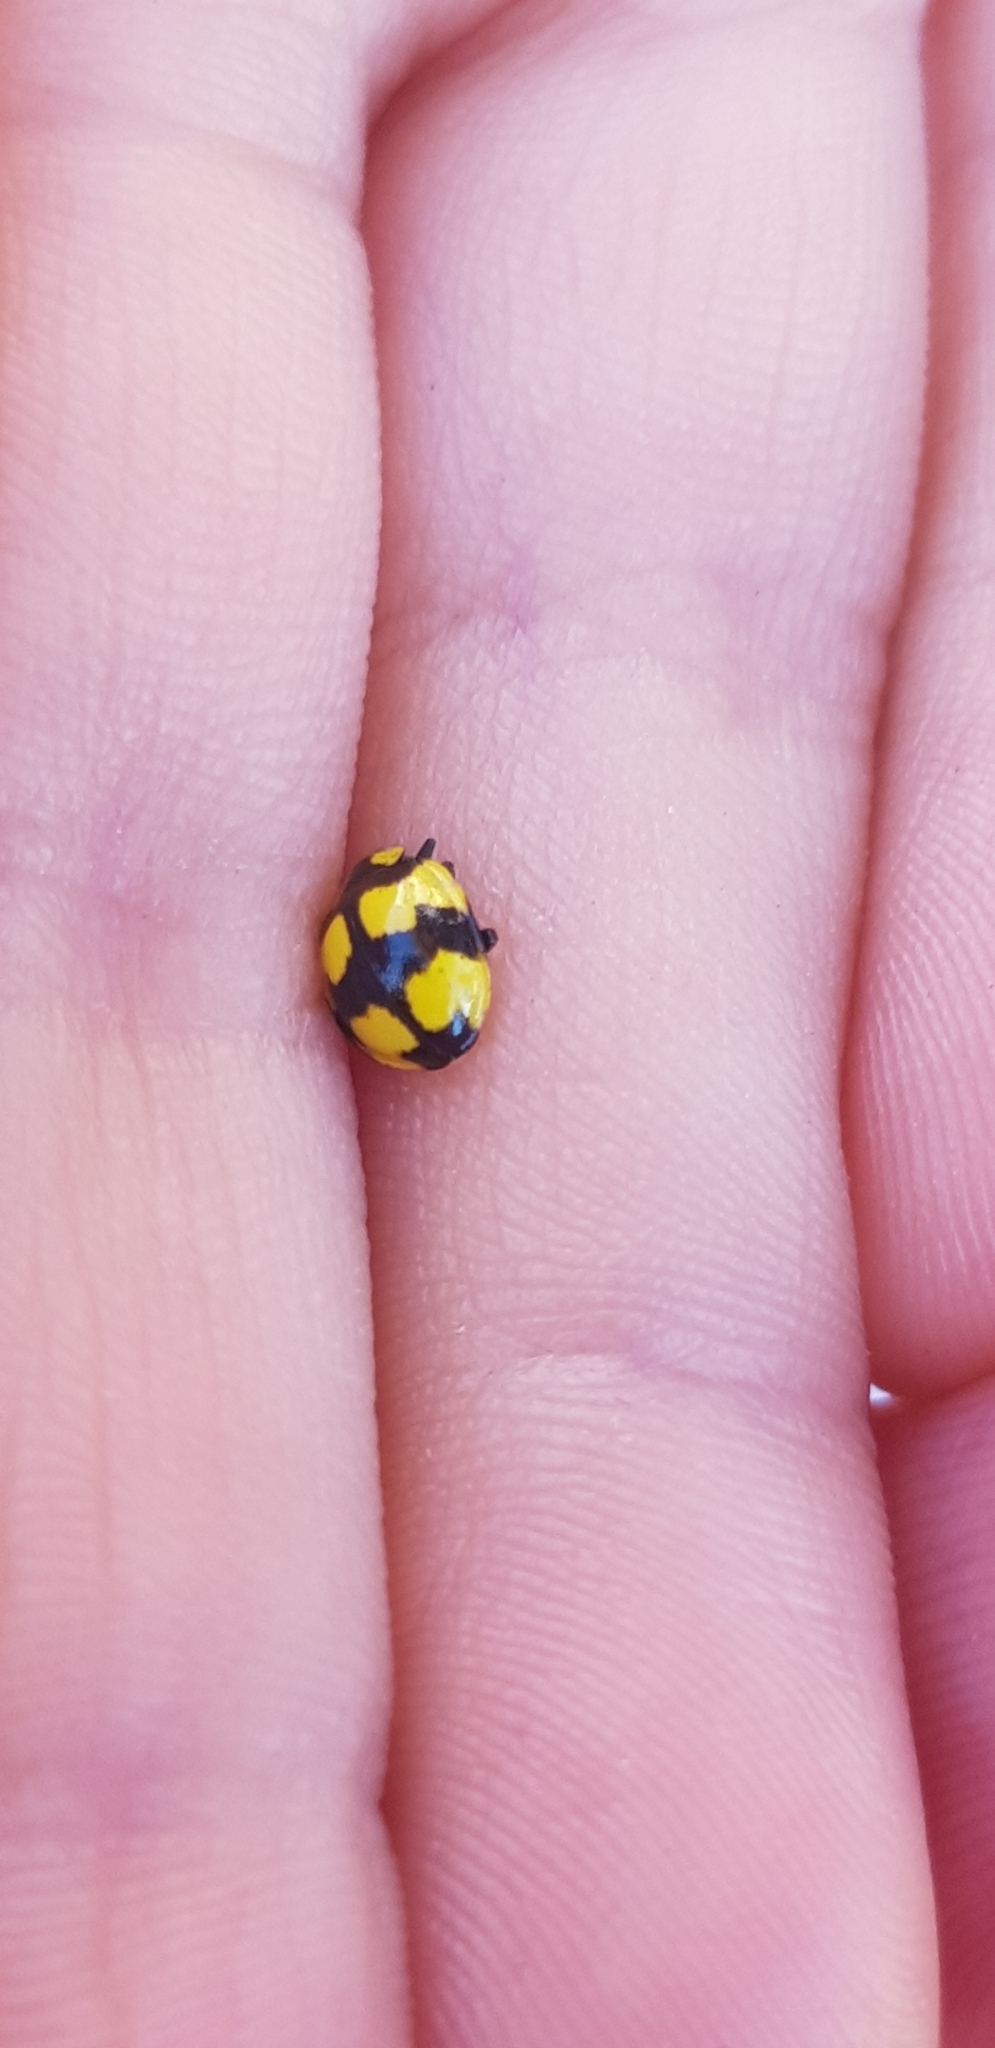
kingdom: Animalia
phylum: Arthropoda
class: Insecta
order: Coleoptera
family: Coccinellidae
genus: Illeis
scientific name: Illeis galbula
